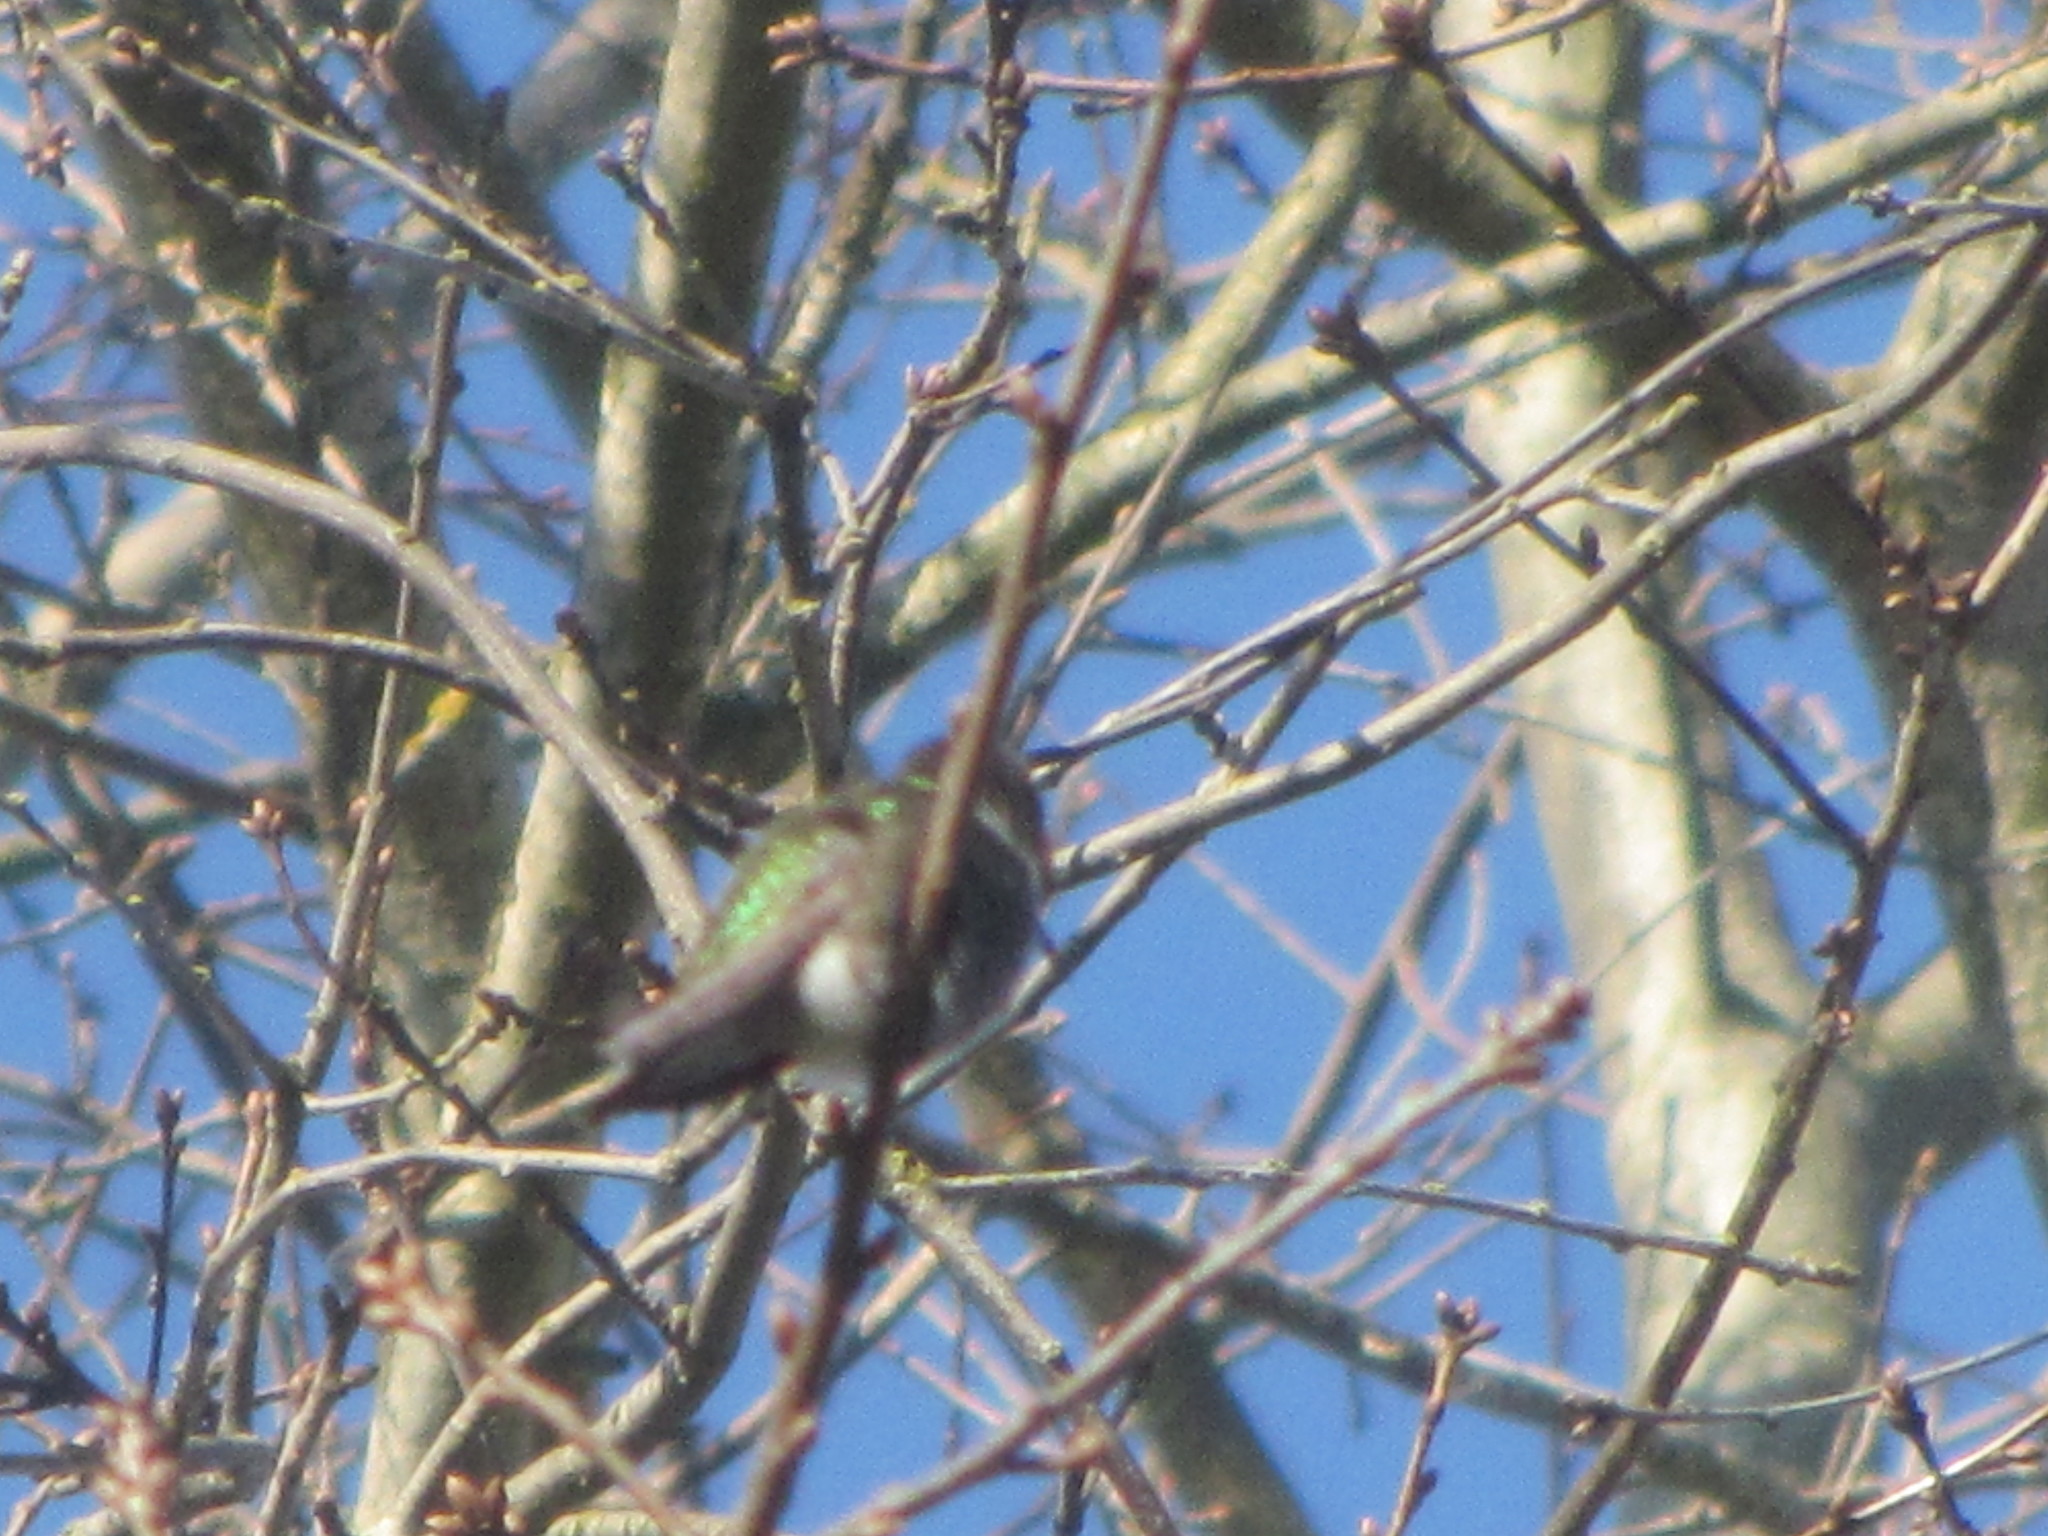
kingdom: Animalia
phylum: Chordata
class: Aves
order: Apodiformes
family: Trochilidae
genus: Calypte
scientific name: Calypte anna
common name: Anna's hummingbird
